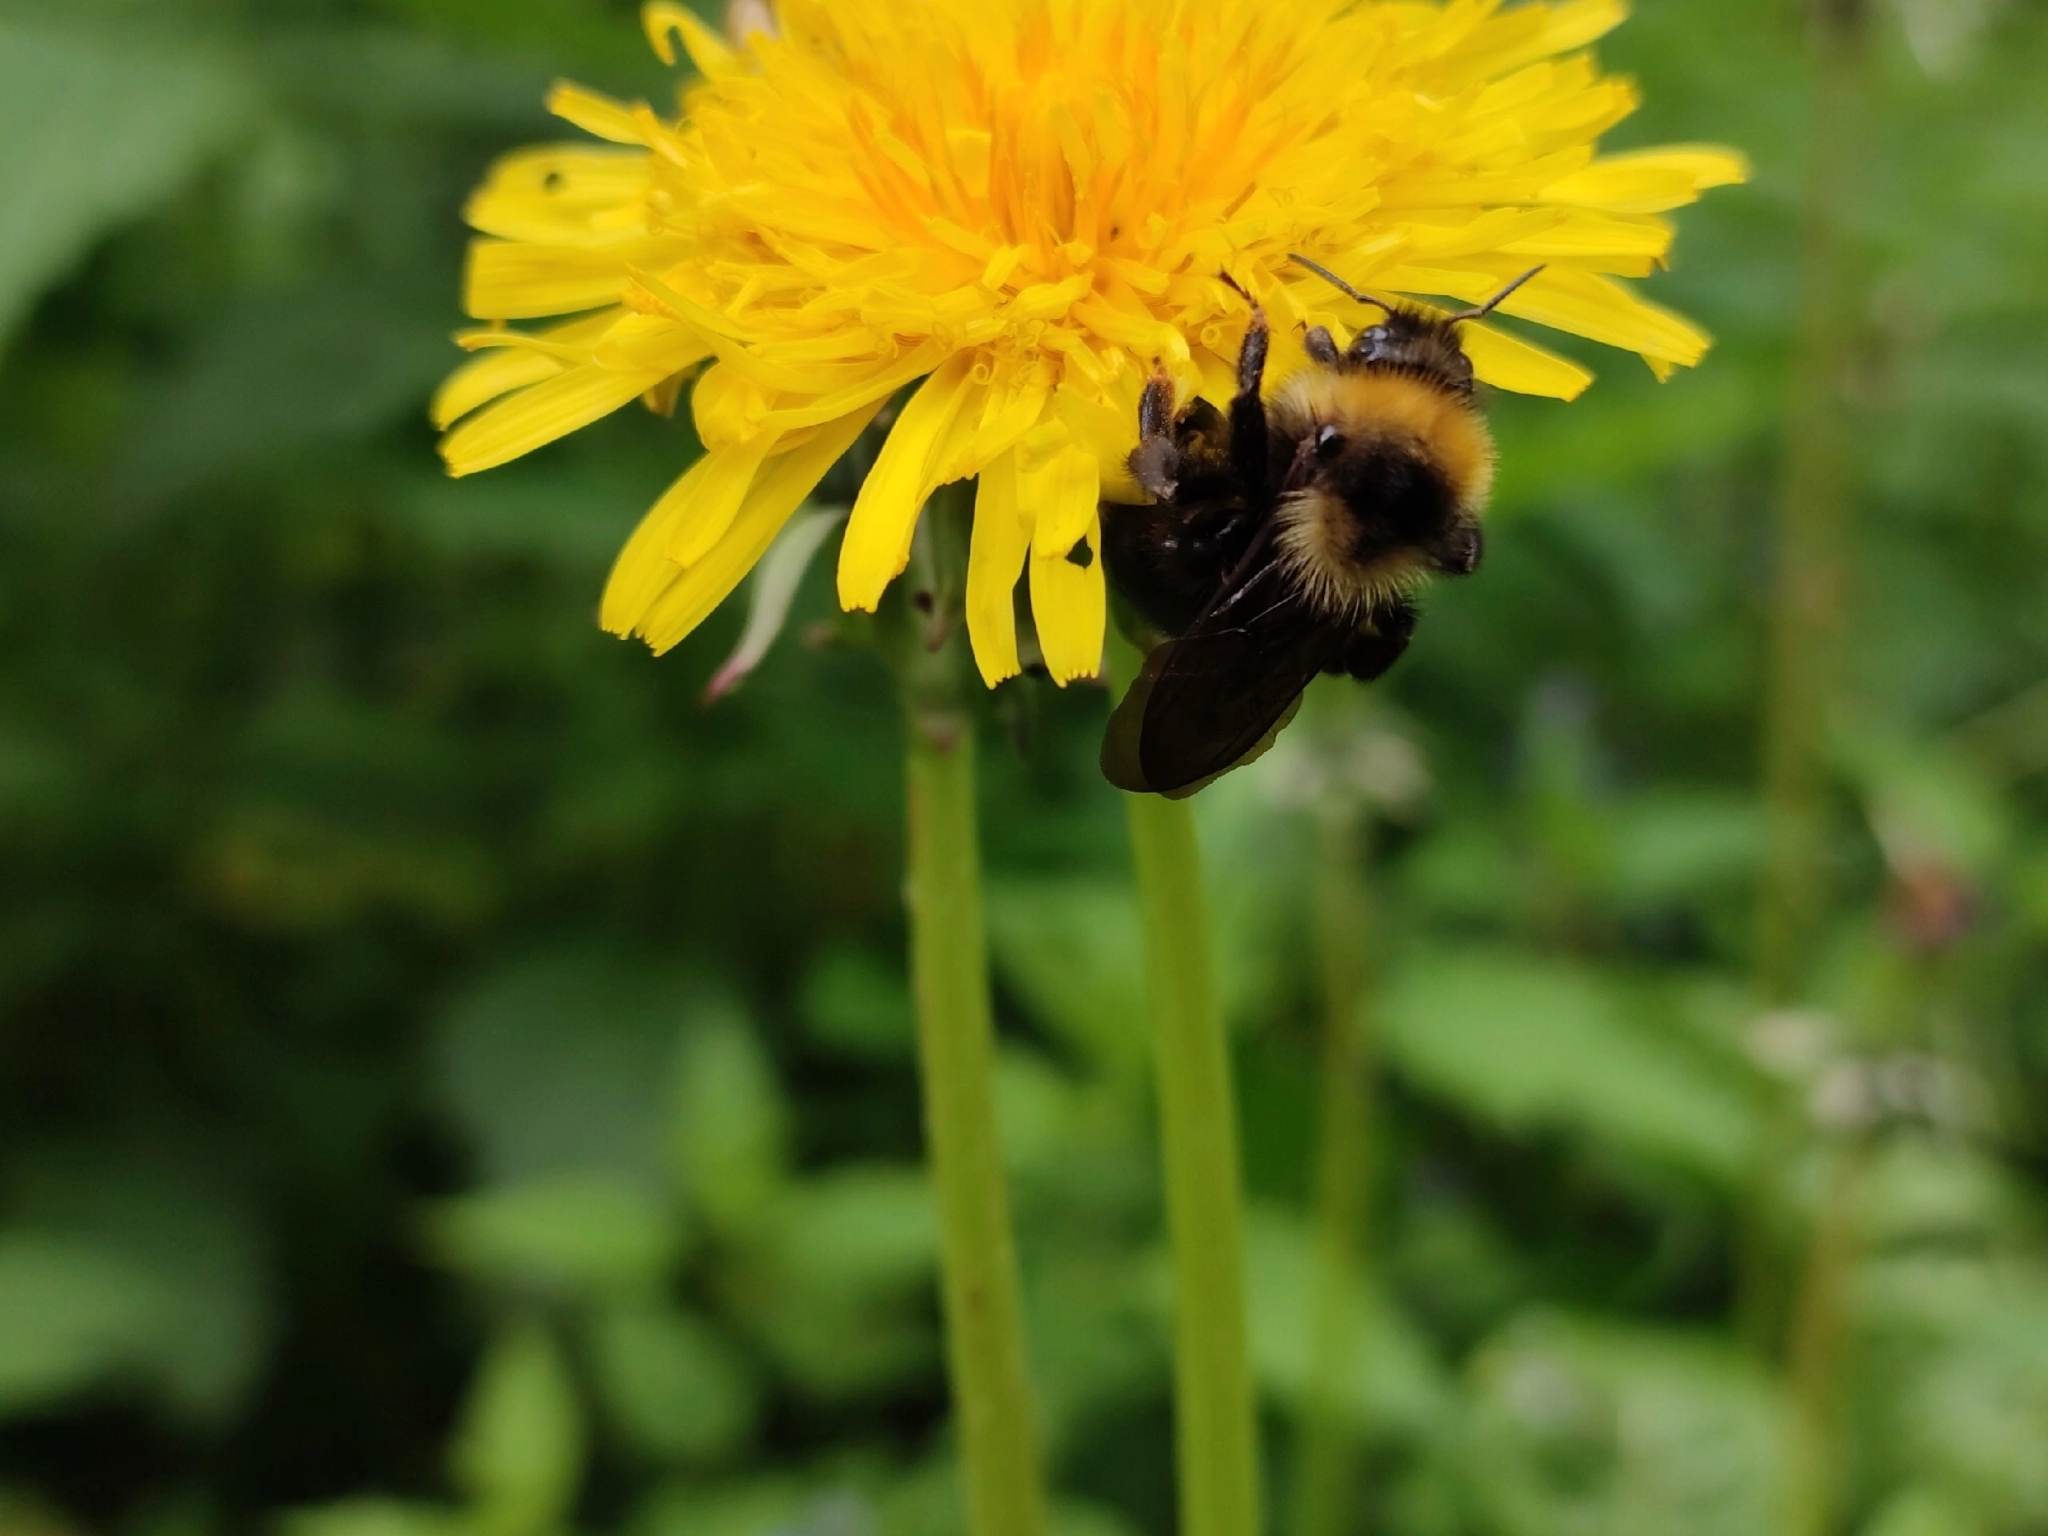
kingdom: Animalia
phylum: Arthropoda
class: Insecta
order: Hymenoptera
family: Apidae
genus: Bombus
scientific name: Bombus campestris
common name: Field cuckoo-bee
